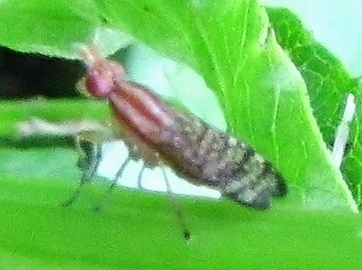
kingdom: Animalia
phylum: Arthropoda
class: Insecta
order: Diptera
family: Sciomyzidae
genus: Limnia
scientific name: Limnia boscii
